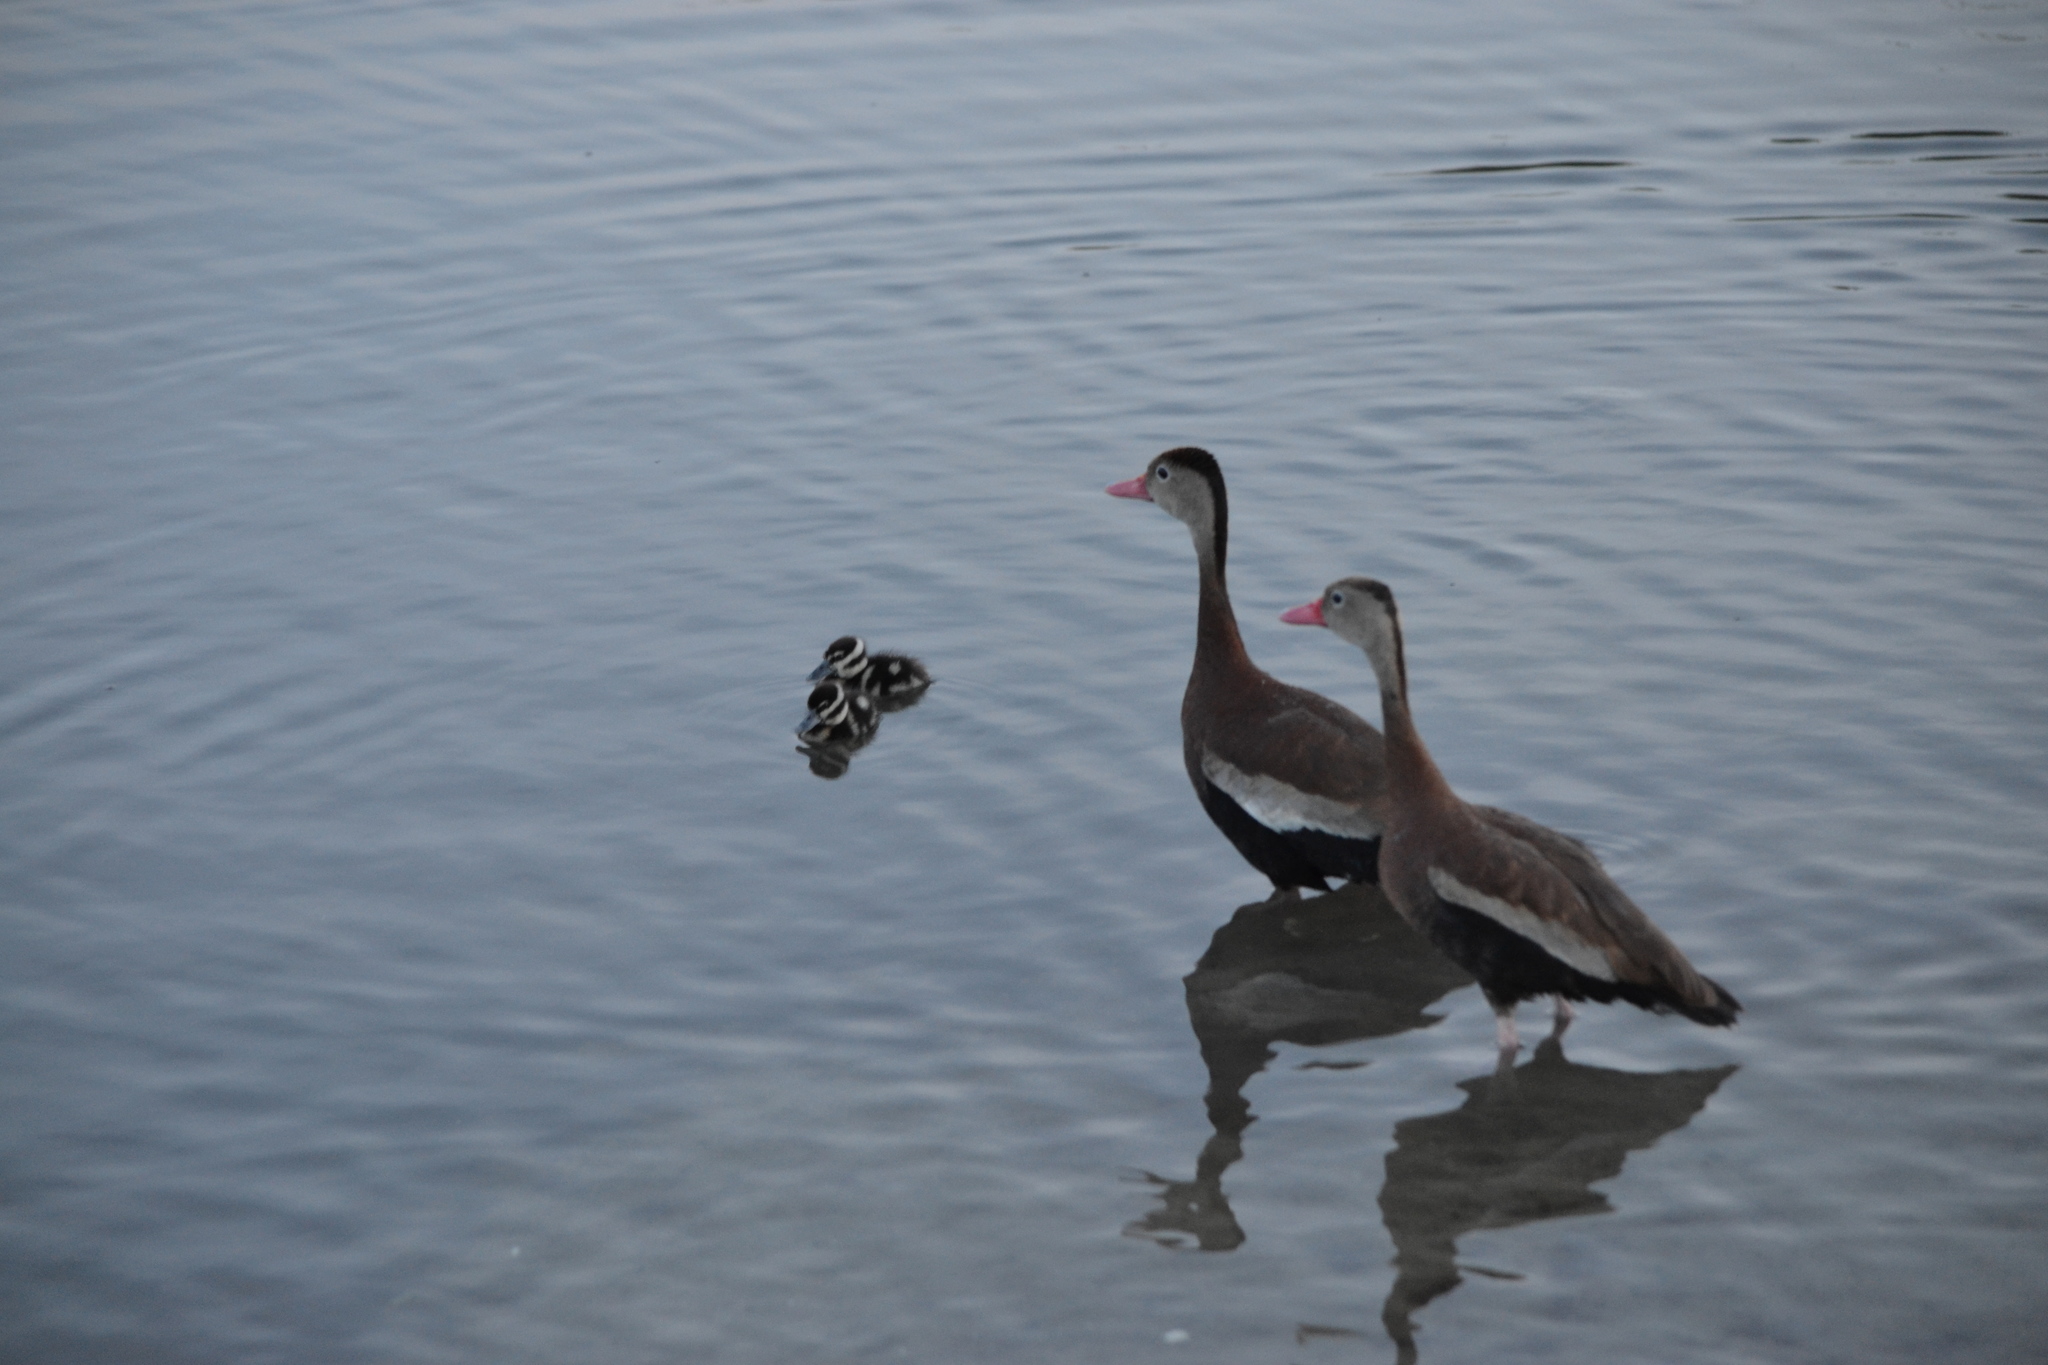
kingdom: Animalia
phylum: Chordata
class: Aves
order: Anseriformes
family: Anatidae
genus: Dendrocygna
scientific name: Dendrocygna autumnalis
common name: Black-bellied whistling duck
